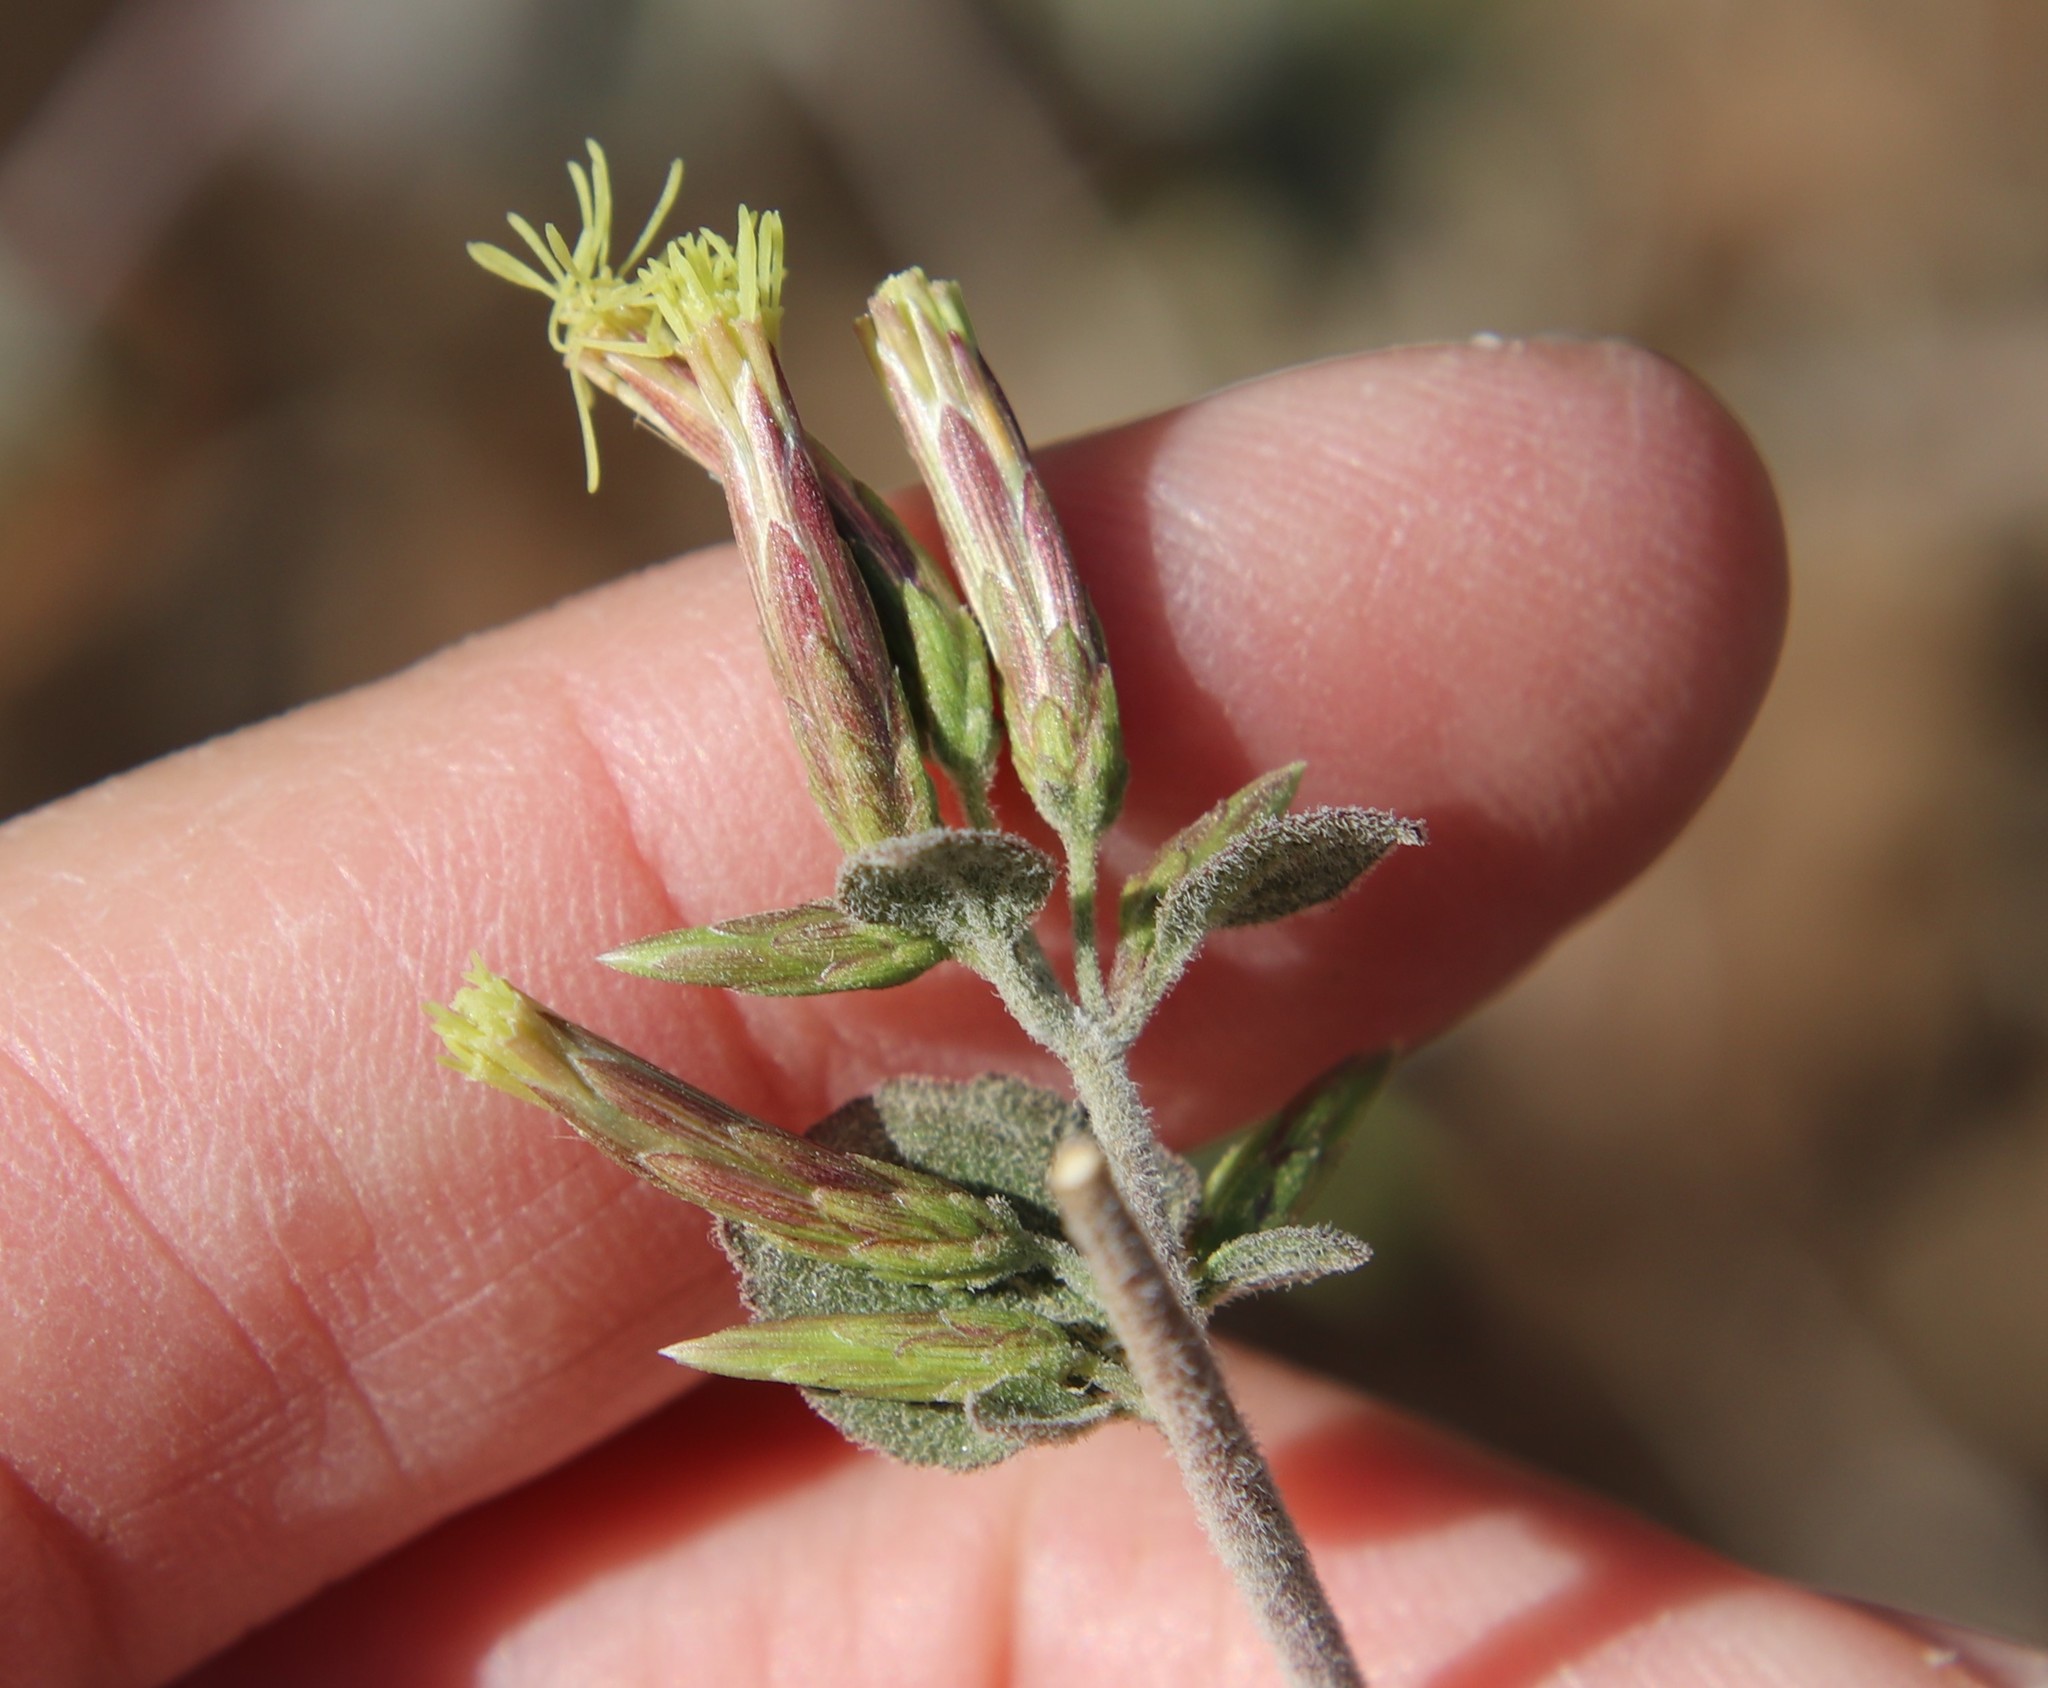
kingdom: Plantae
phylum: Tracheophyta
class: Magnoliopsida
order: Asterales
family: Asteraceae
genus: Brickellia
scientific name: Brickellia californica
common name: California brickellbush
